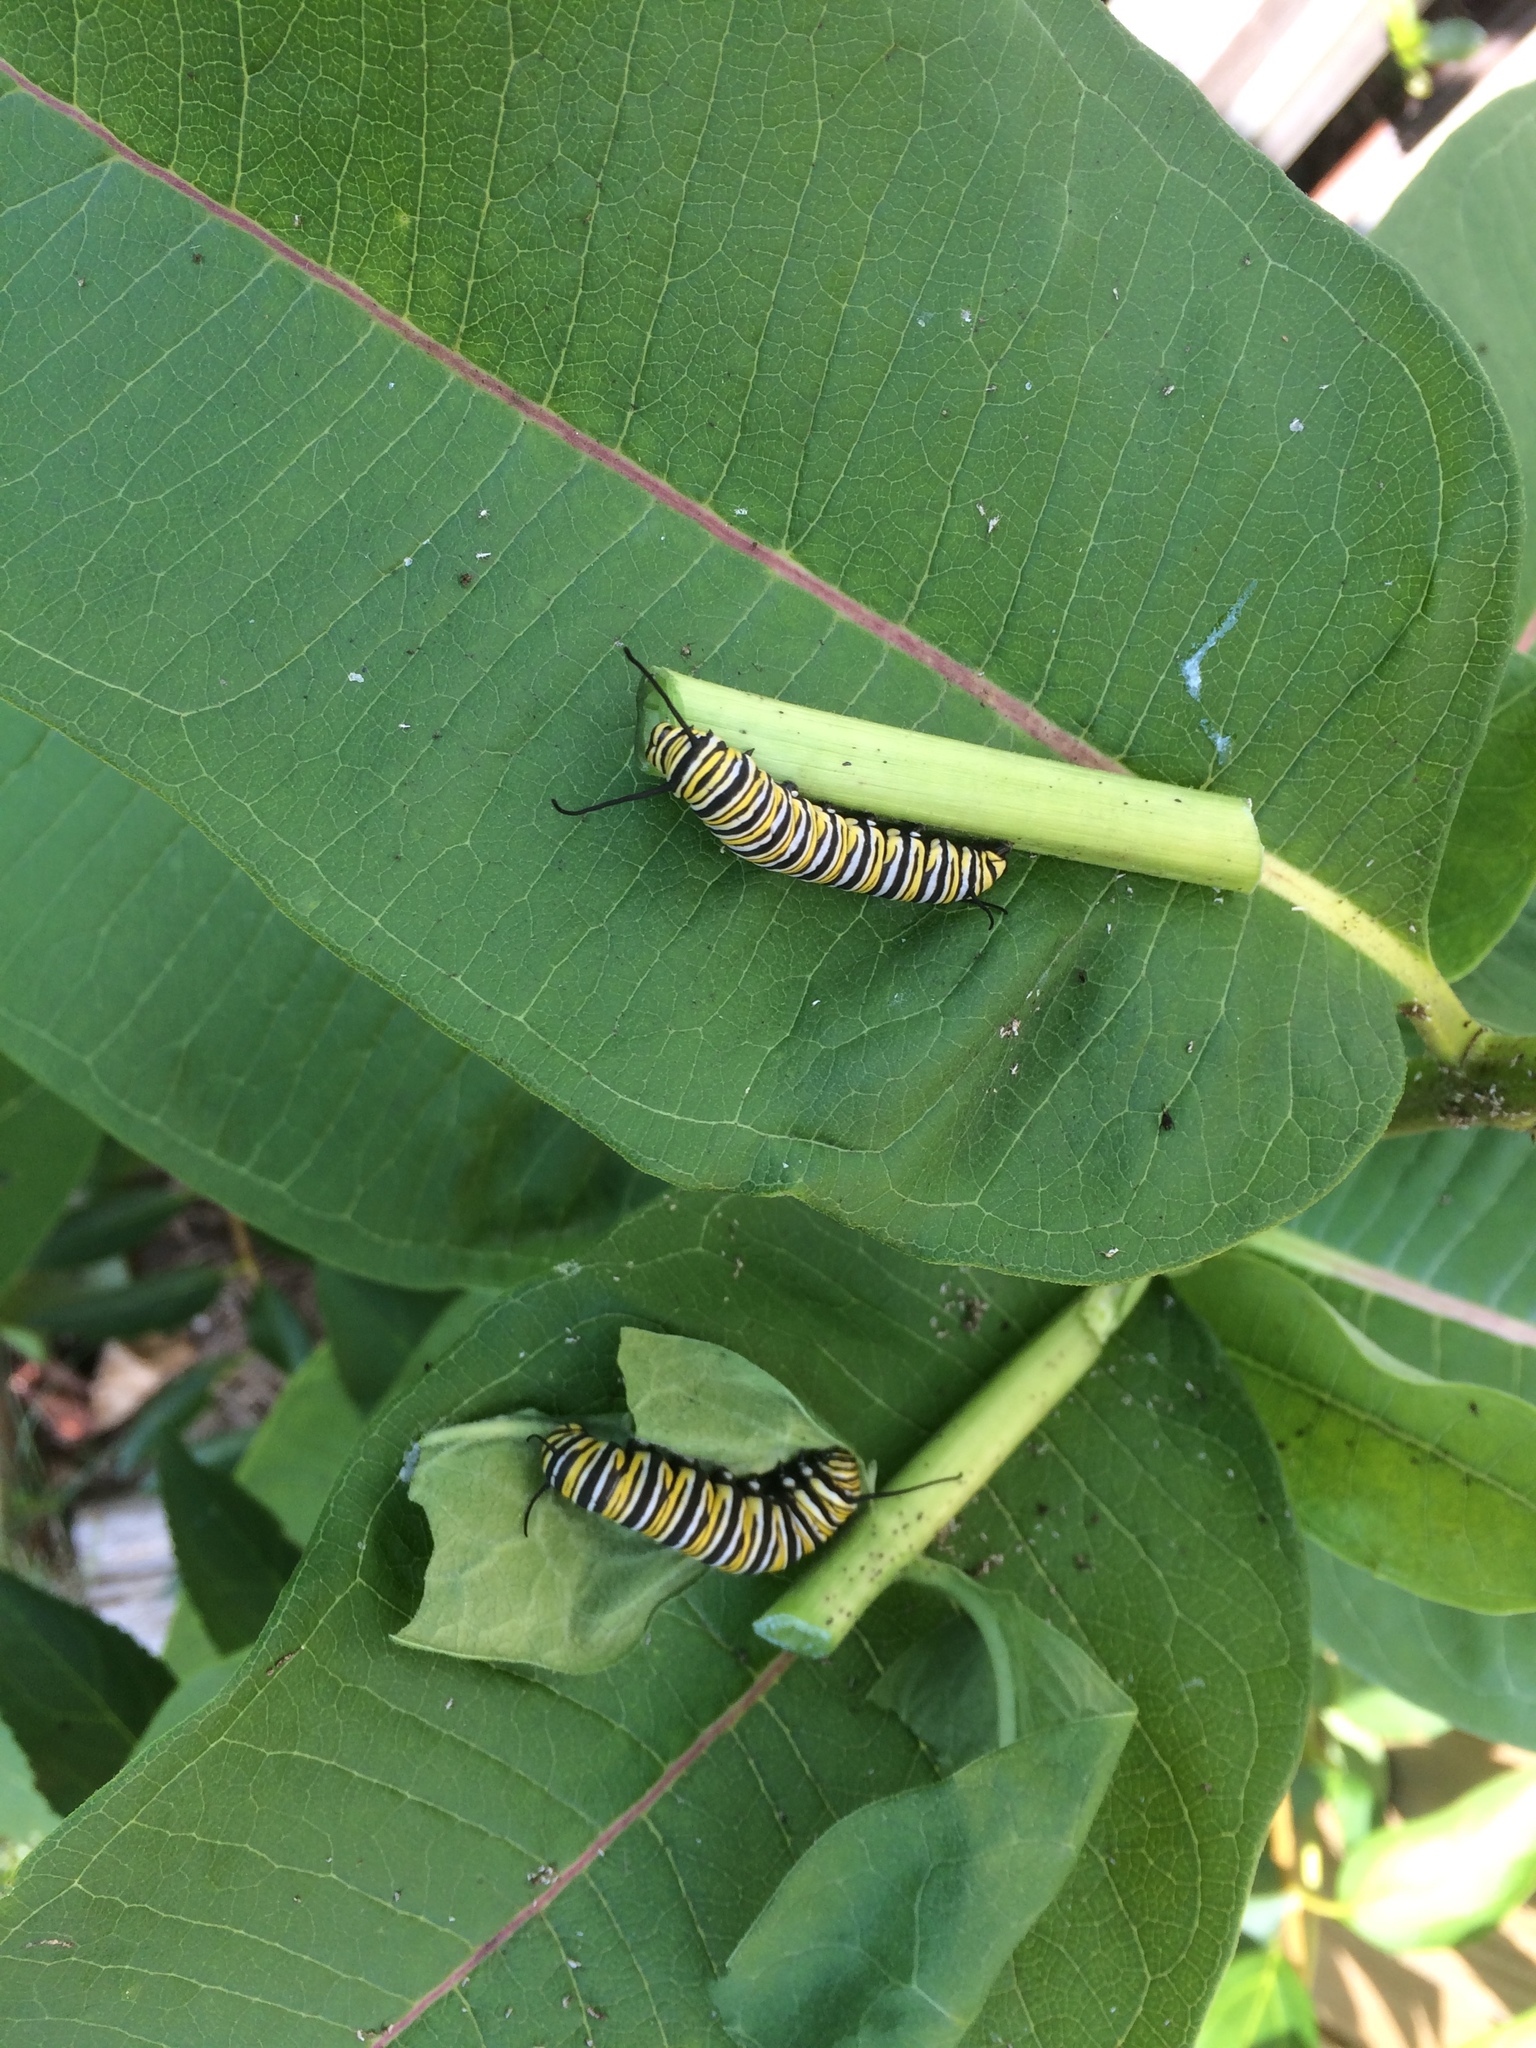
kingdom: Animalia
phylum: Arthropoda
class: Insecta
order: Lepidoptera
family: Nymphalidae
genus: Danaus
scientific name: Danaus plexippus
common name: Monarch
